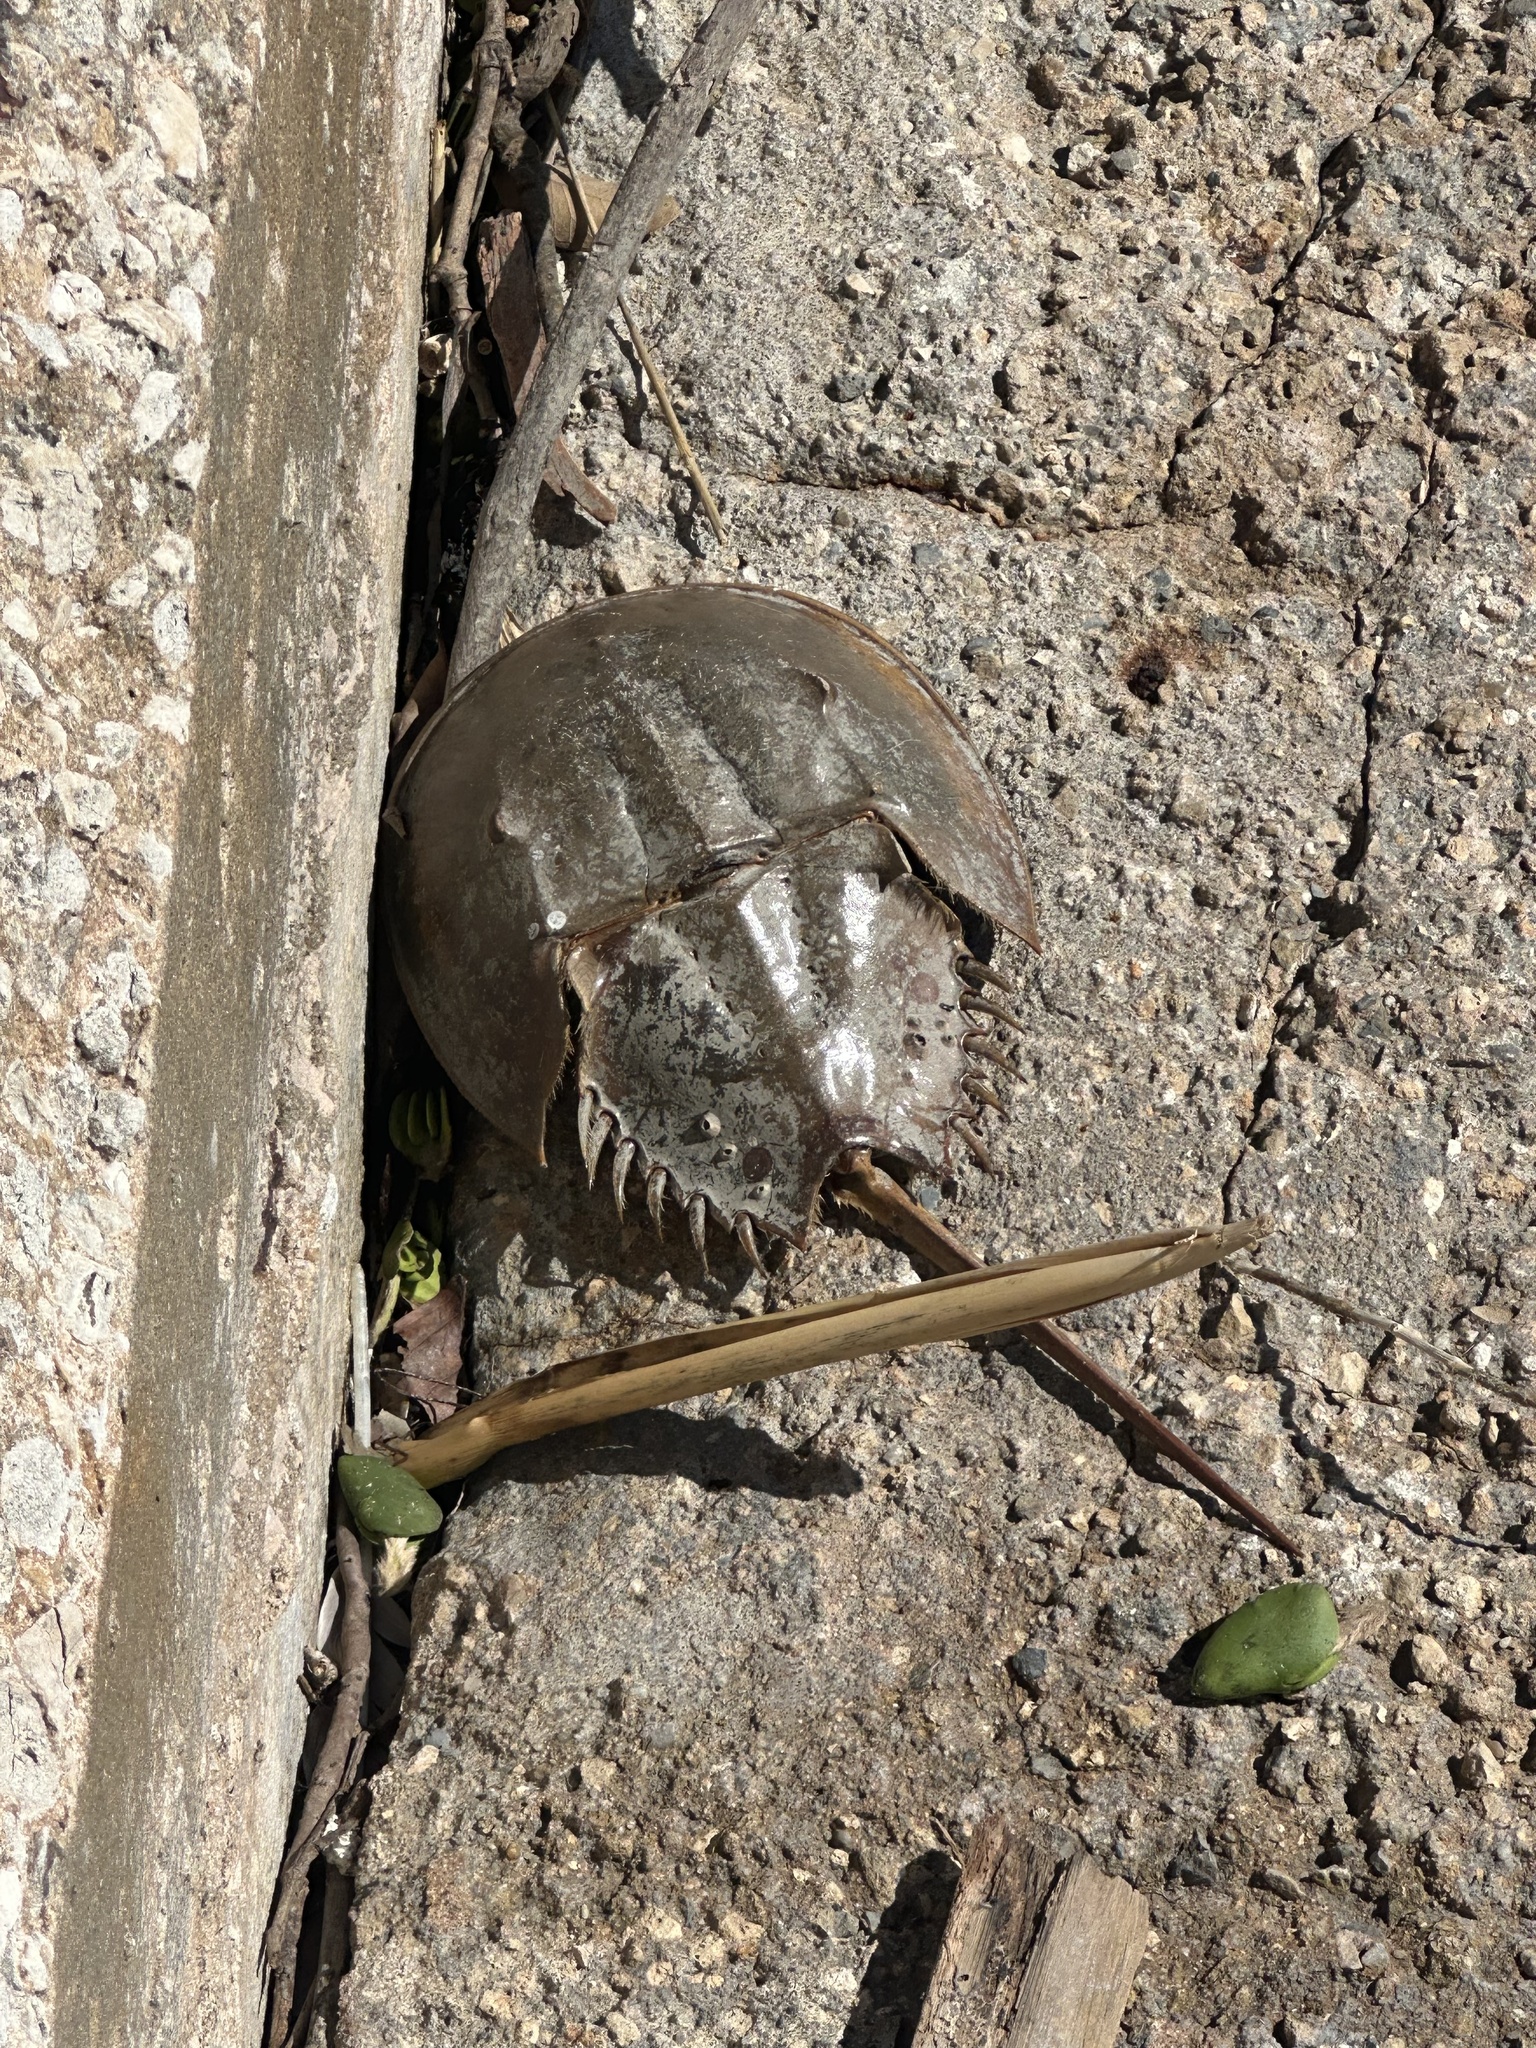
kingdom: Animalia
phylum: Arthropoda
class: Merostomata
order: Xiphosurida
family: Limulidae
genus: Limulus
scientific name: Limulus polyphemus
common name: Horseshoe crab
